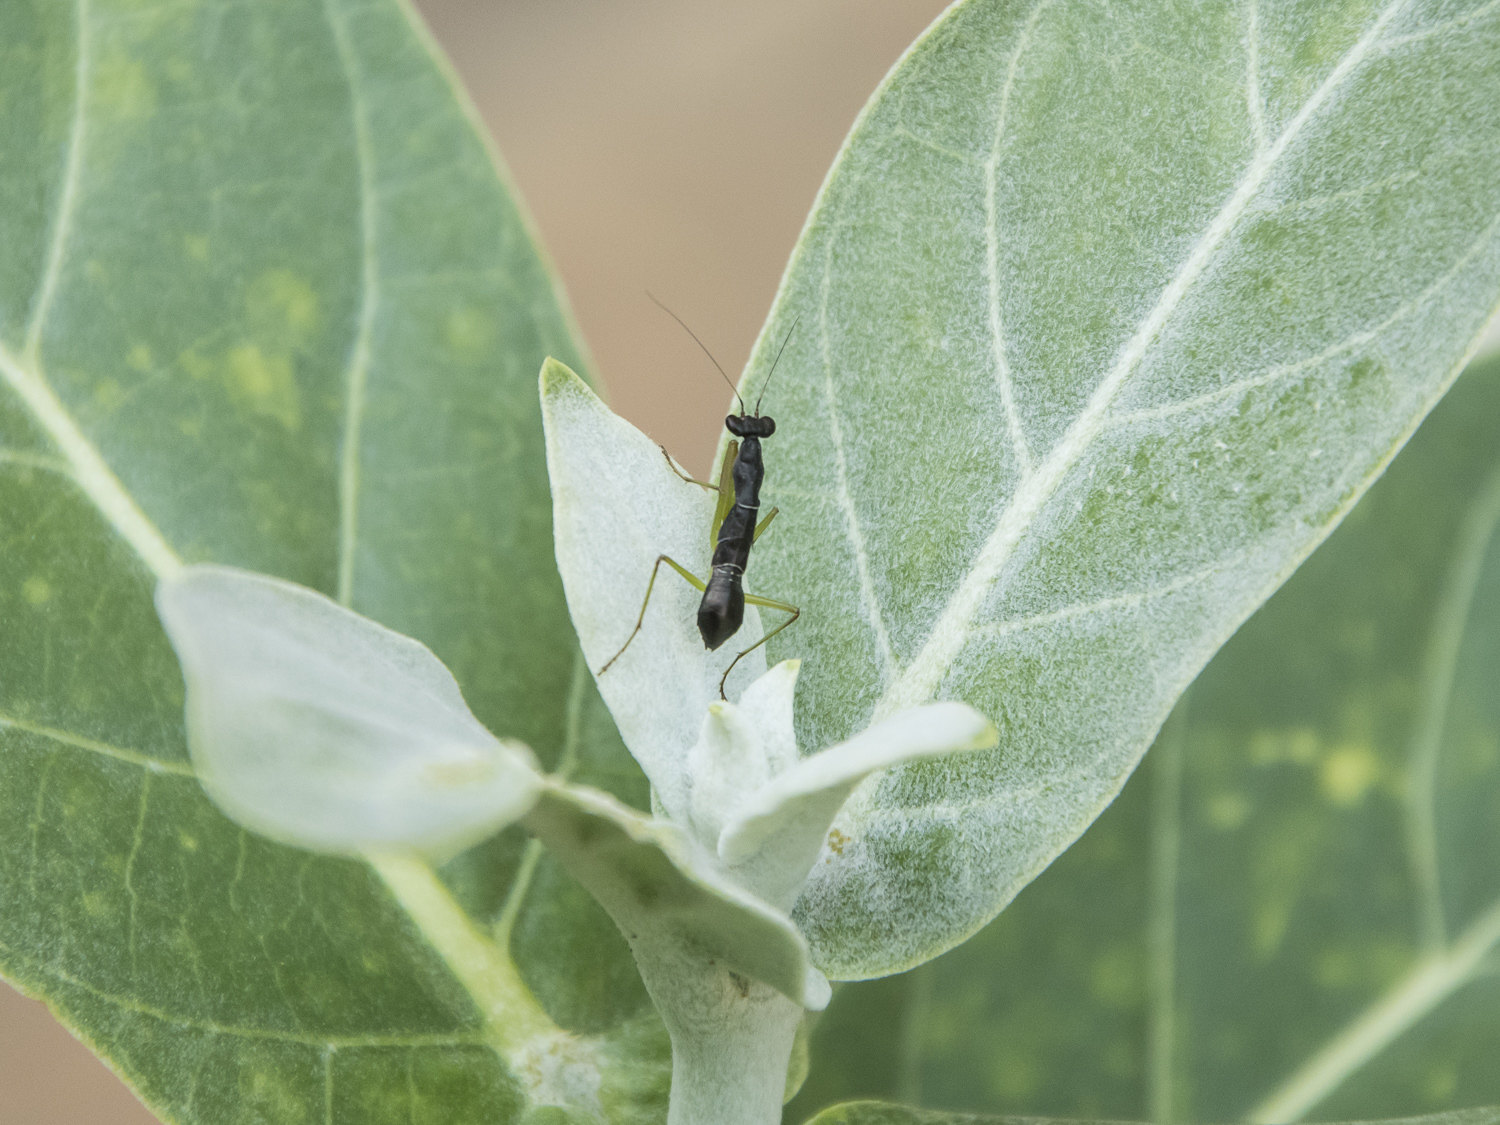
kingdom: Animalia
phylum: Arthropoda
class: Insecta
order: Mantodea
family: Hymenopodidae
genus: Odontomantis
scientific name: Odontomantis planiceps
